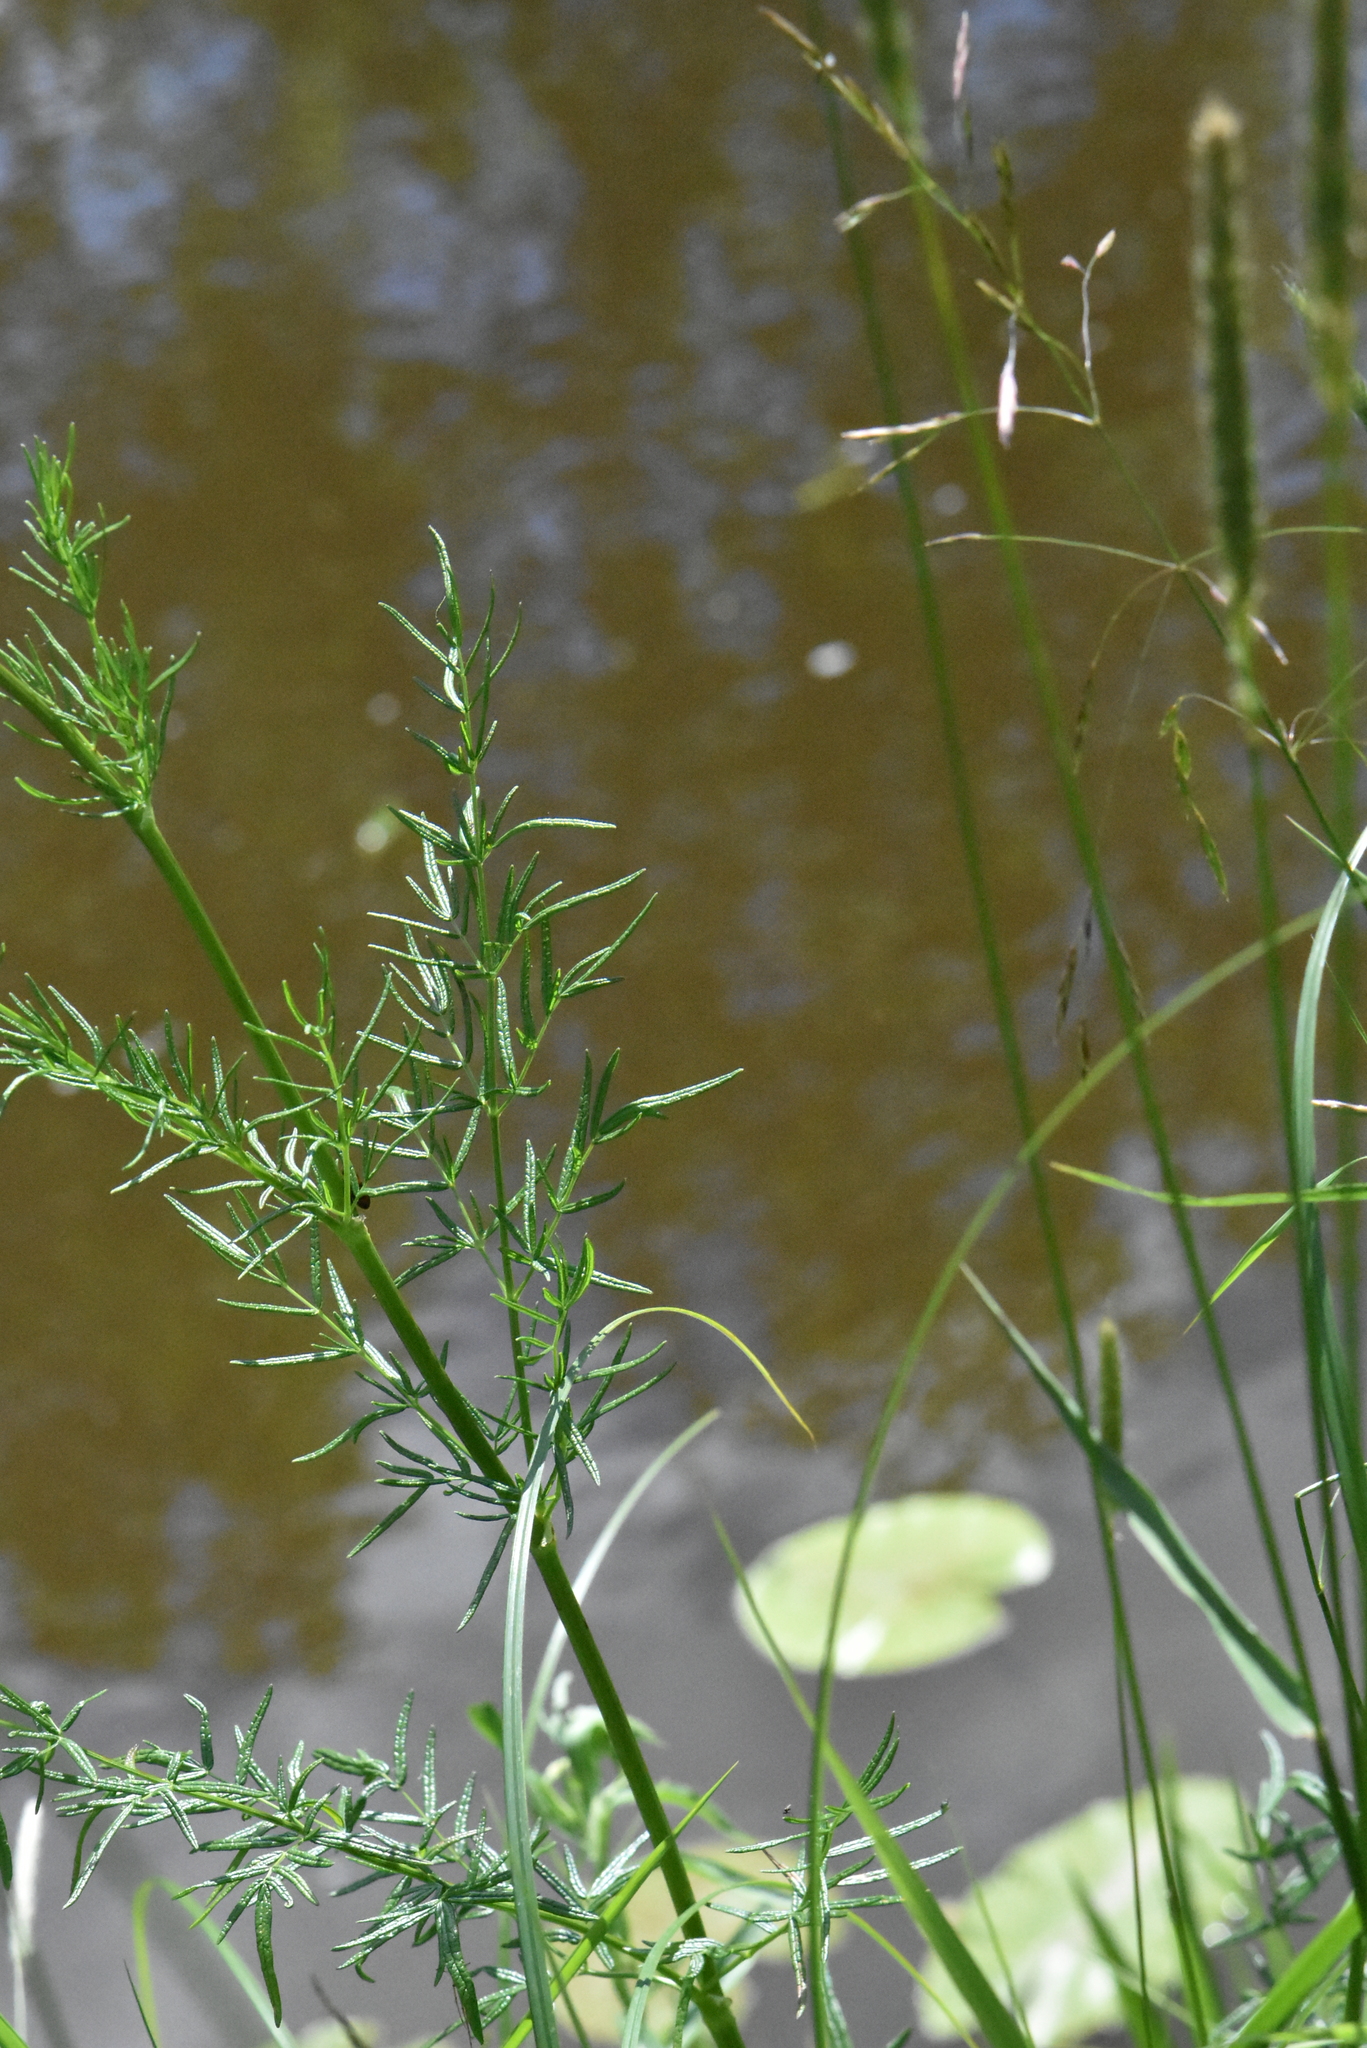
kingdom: Plantae
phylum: Tracheophyta
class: Magnoliopsida
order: Ranunculales
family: Ranunculaceae
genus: Thalictrum
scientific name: Thalictrum lucidum
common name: Shining meadow-rue
